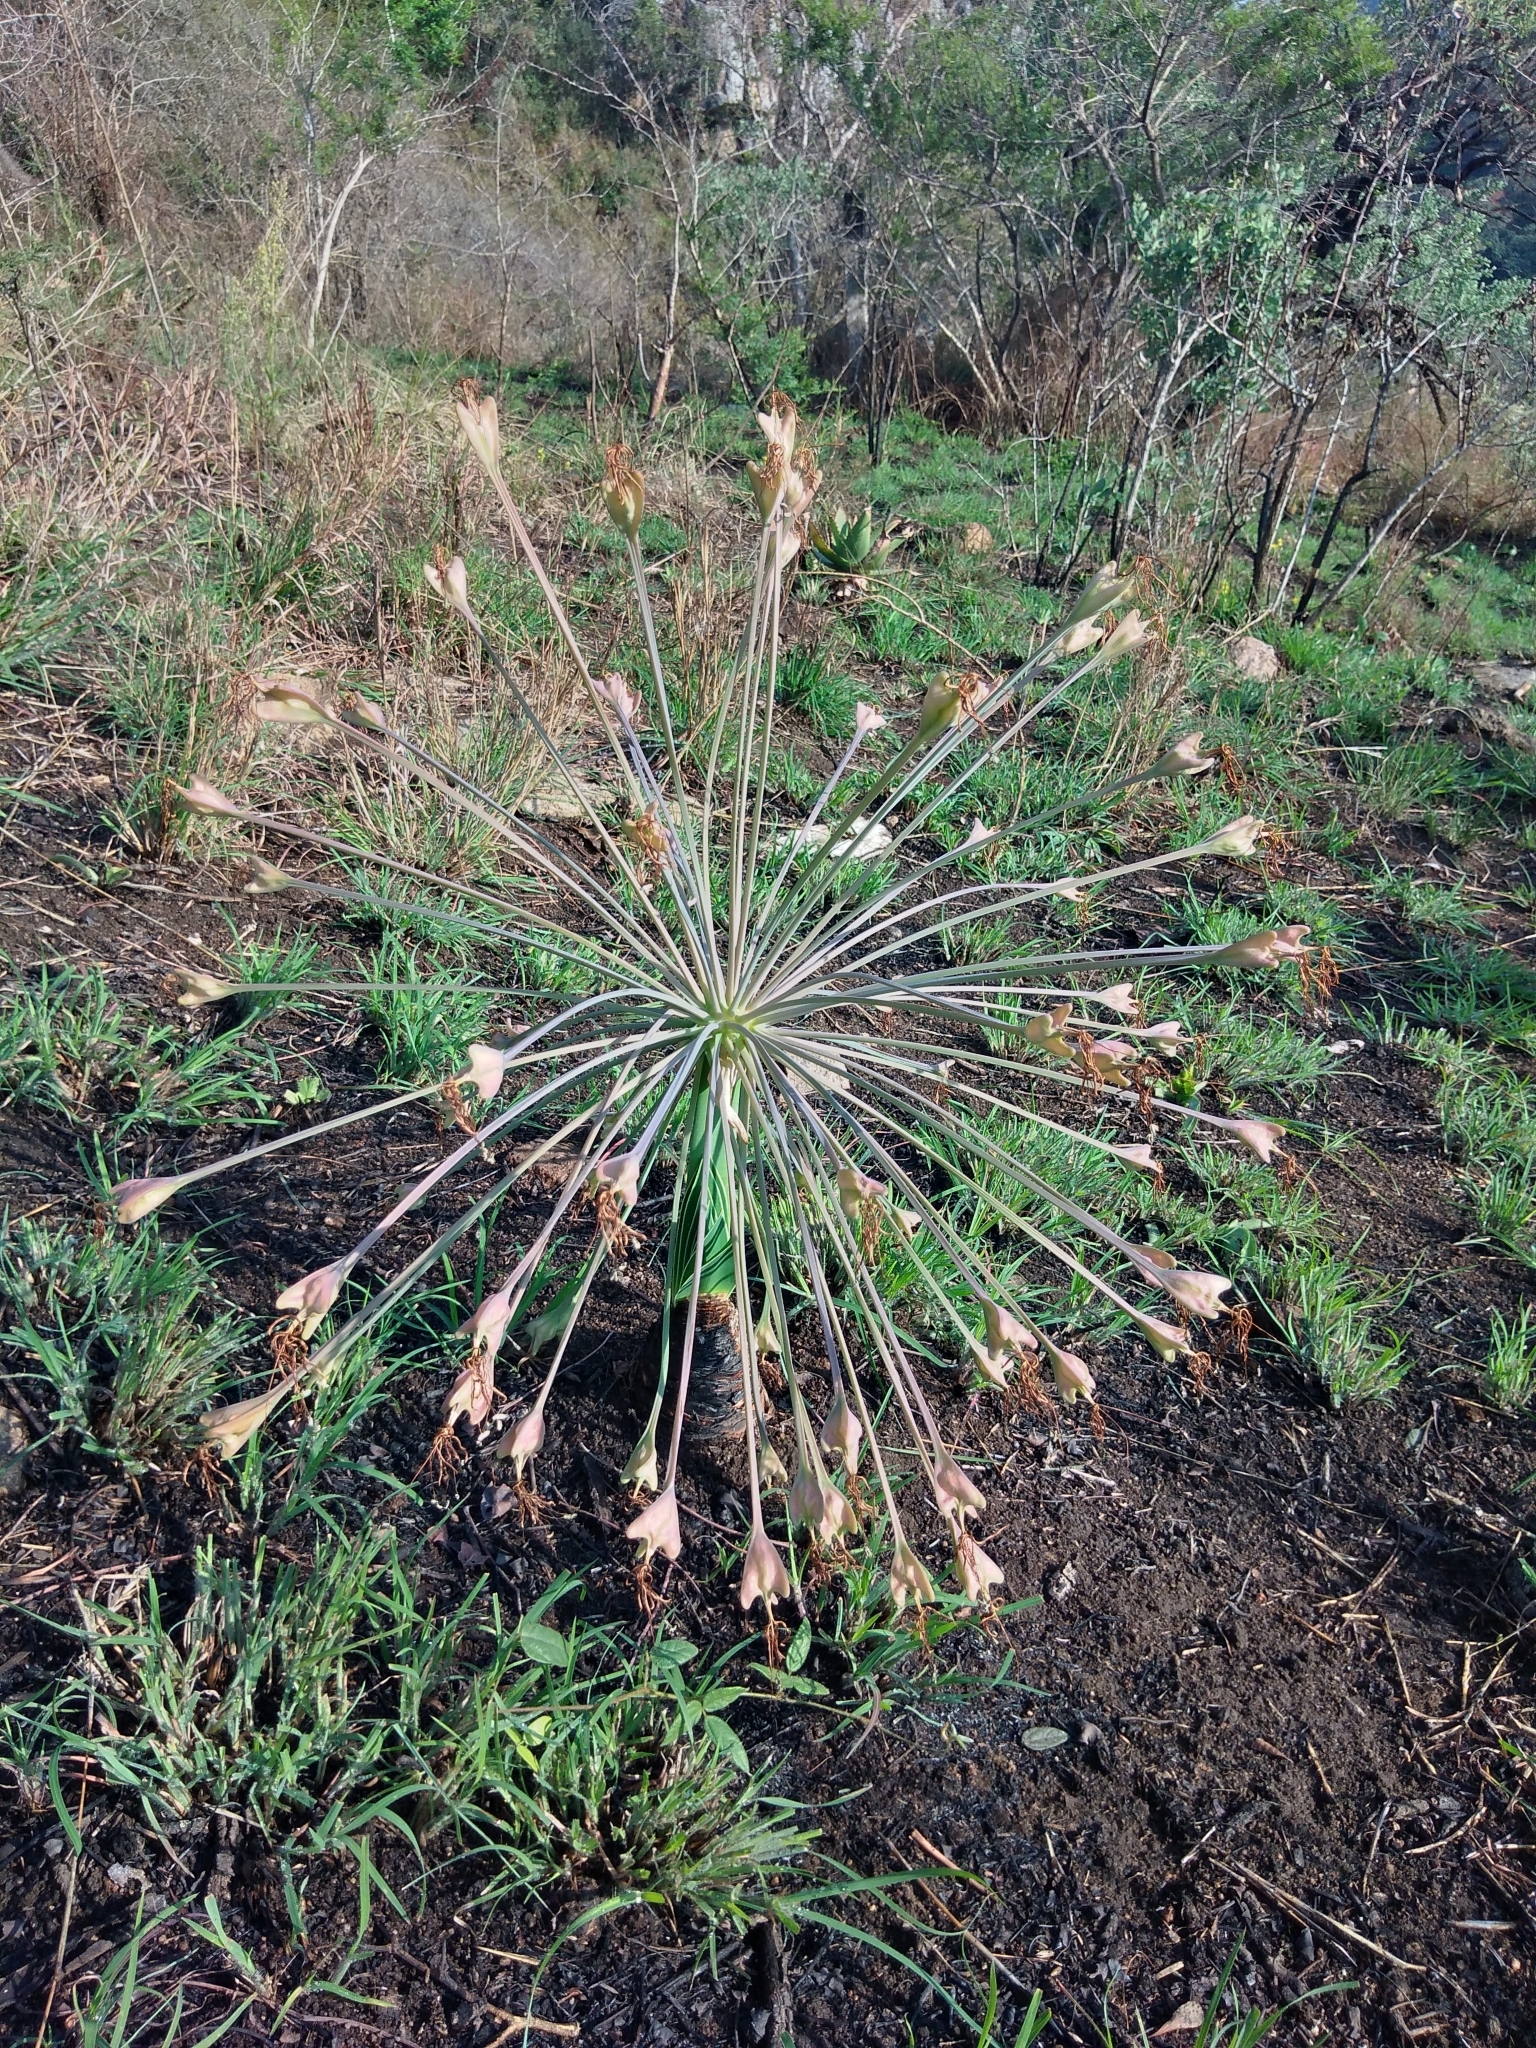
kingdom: Plantae
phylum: Tracheophyta
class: Liliopsida
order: Asparagales
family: Amaryllidaceae
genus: Boophone
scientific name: Boophone disticha
